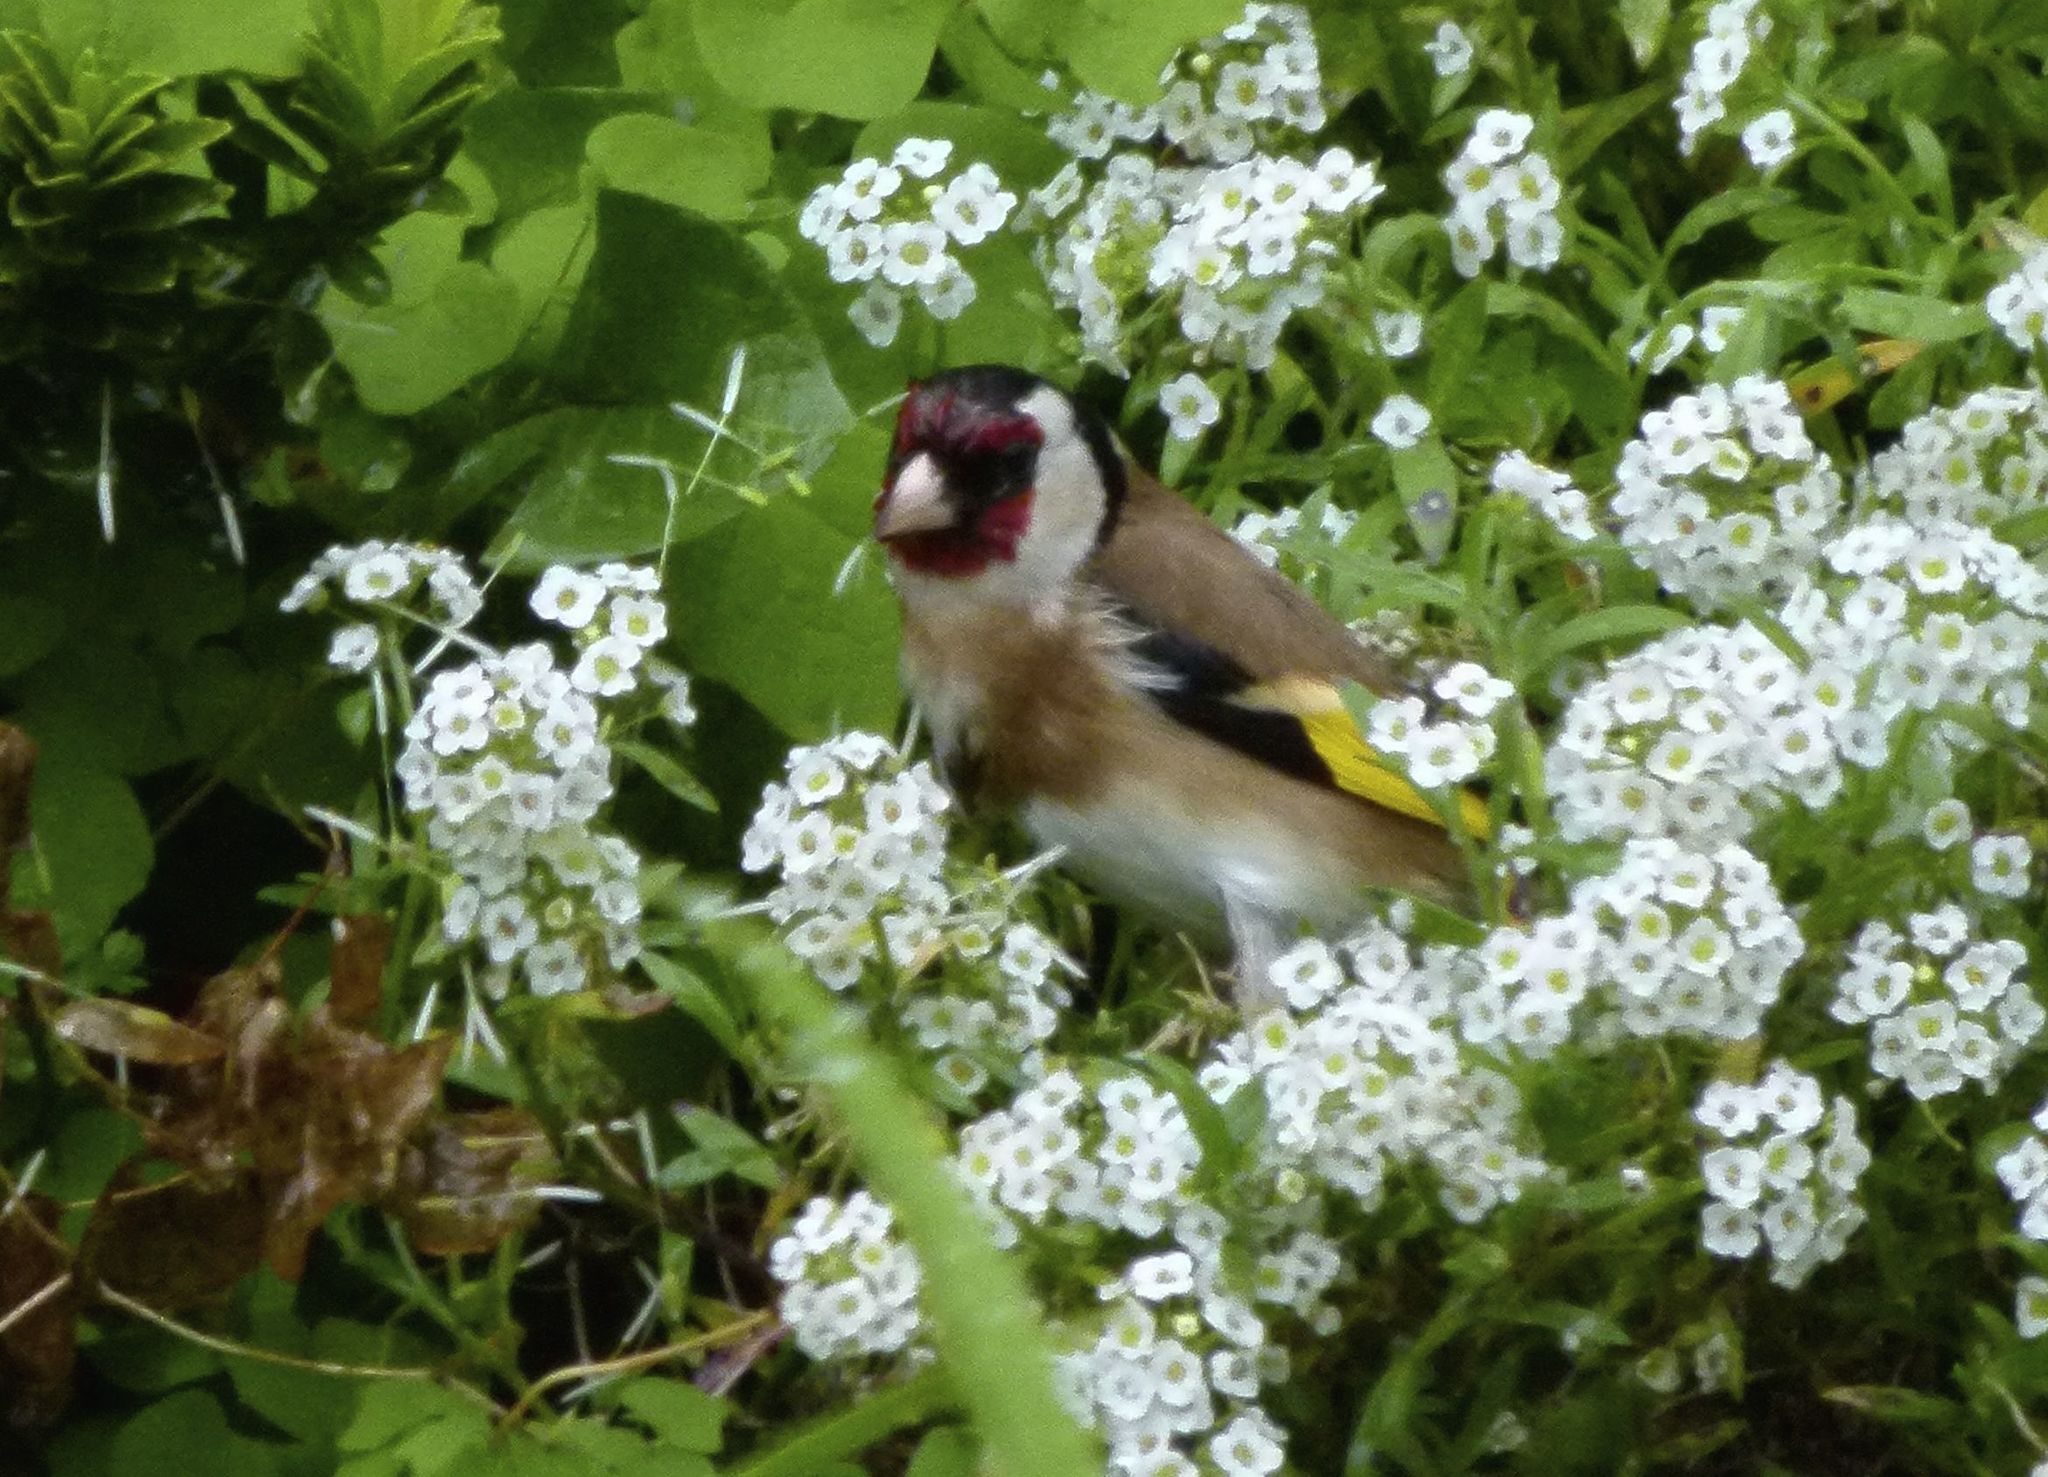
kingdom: Animalia
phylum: Chordata
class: Aves
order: Passeriformes
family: Fringillidae
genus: Carduelis
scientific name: Carduelis carduelis
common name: European goldfinch
